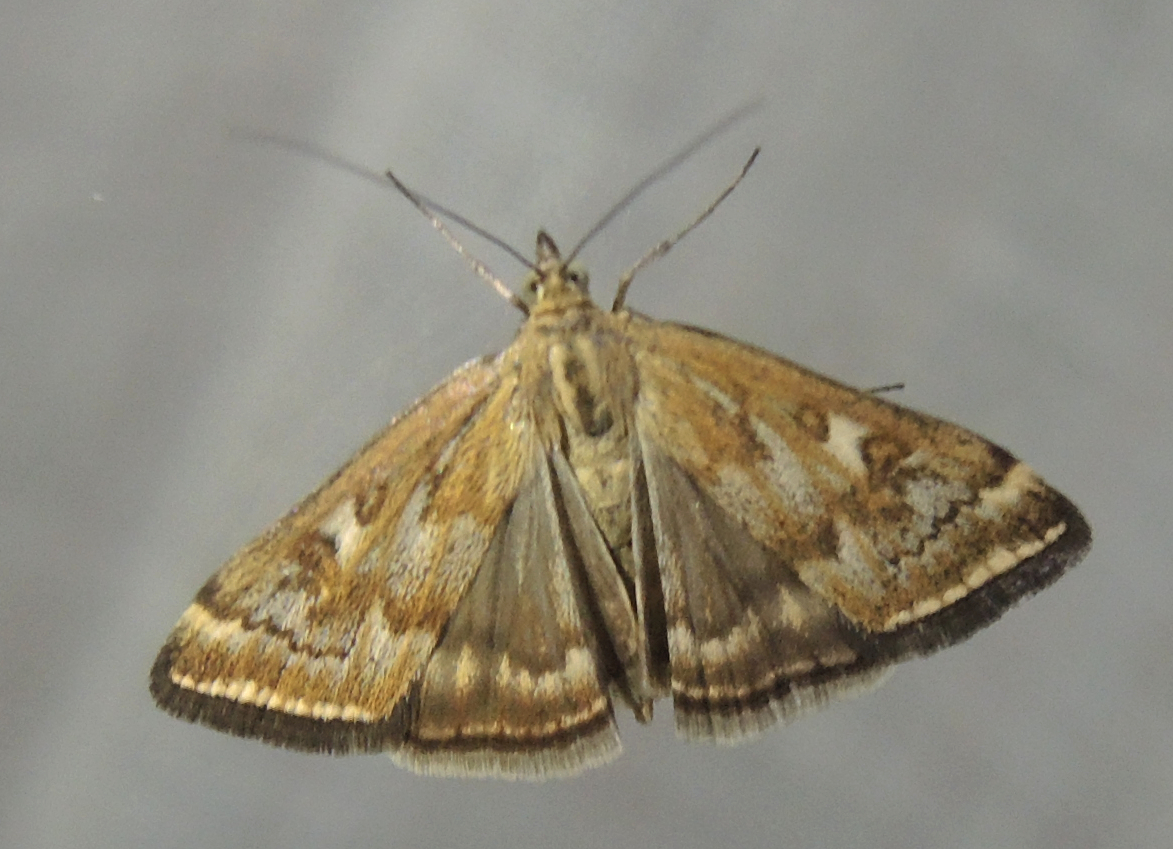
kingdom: Animalia
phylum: Arthropoda
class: Insecta
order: Lepidoptera
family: Crambidae
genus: Loxostege
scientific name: Loxostege sticticalis
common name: Crambid moth
